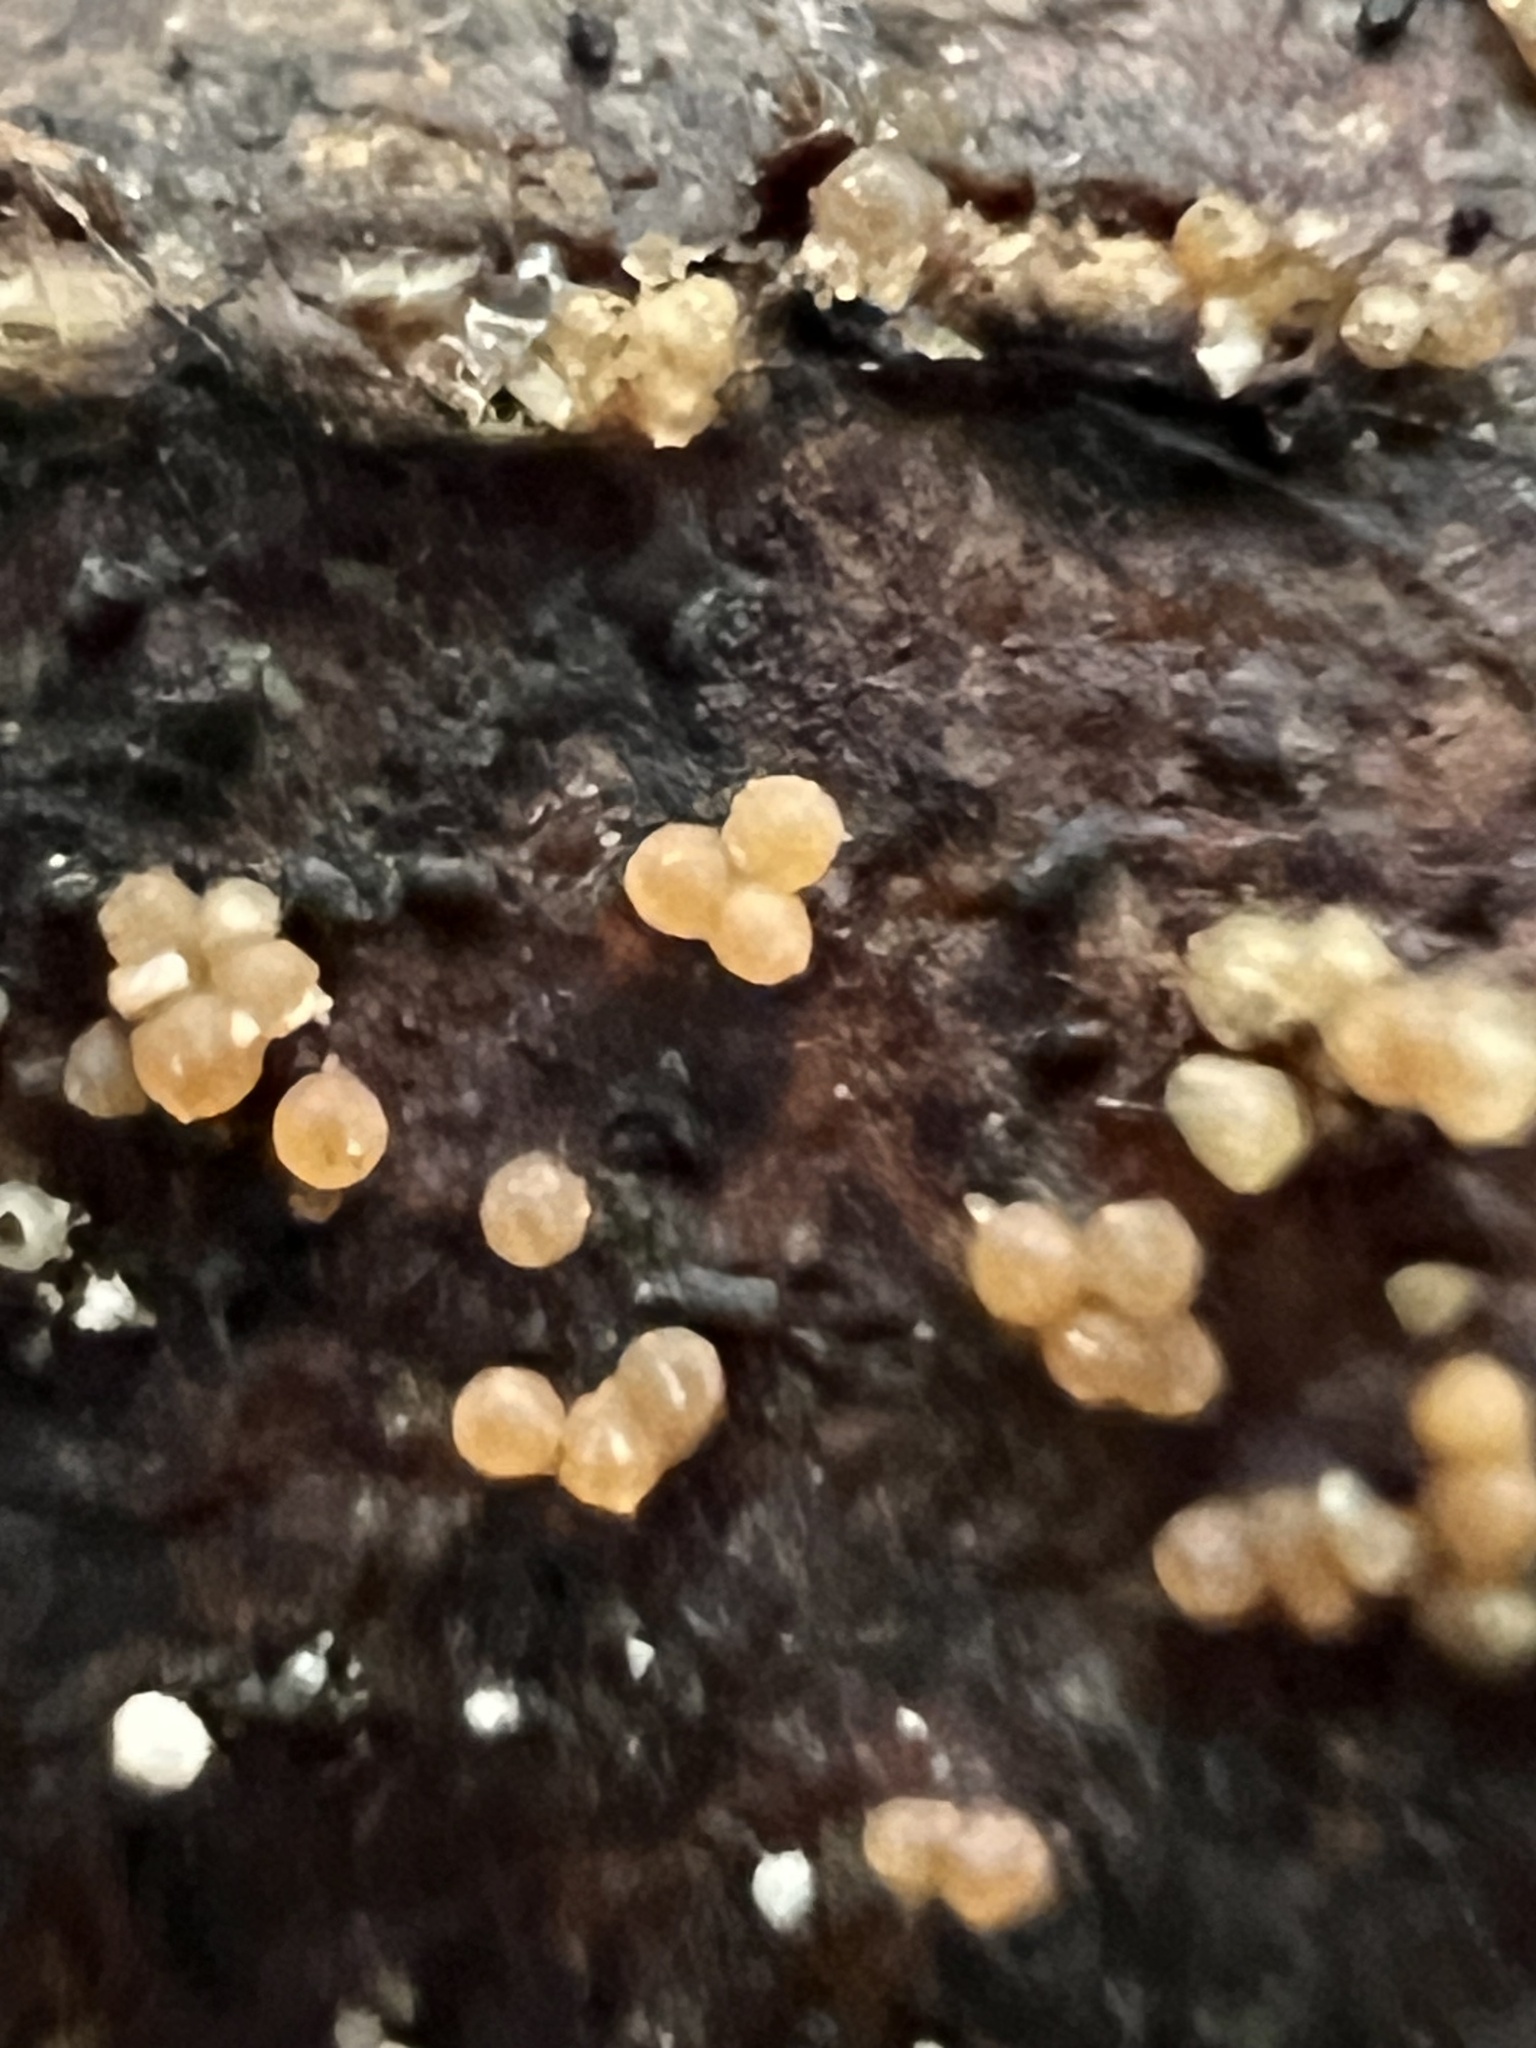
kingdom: Fungi
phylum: Ascomycota
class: Sordariomycetes
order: Hypocreales
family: Nectriaceae
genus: Hydropisphaera
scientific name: Hydropisphaera peziza
